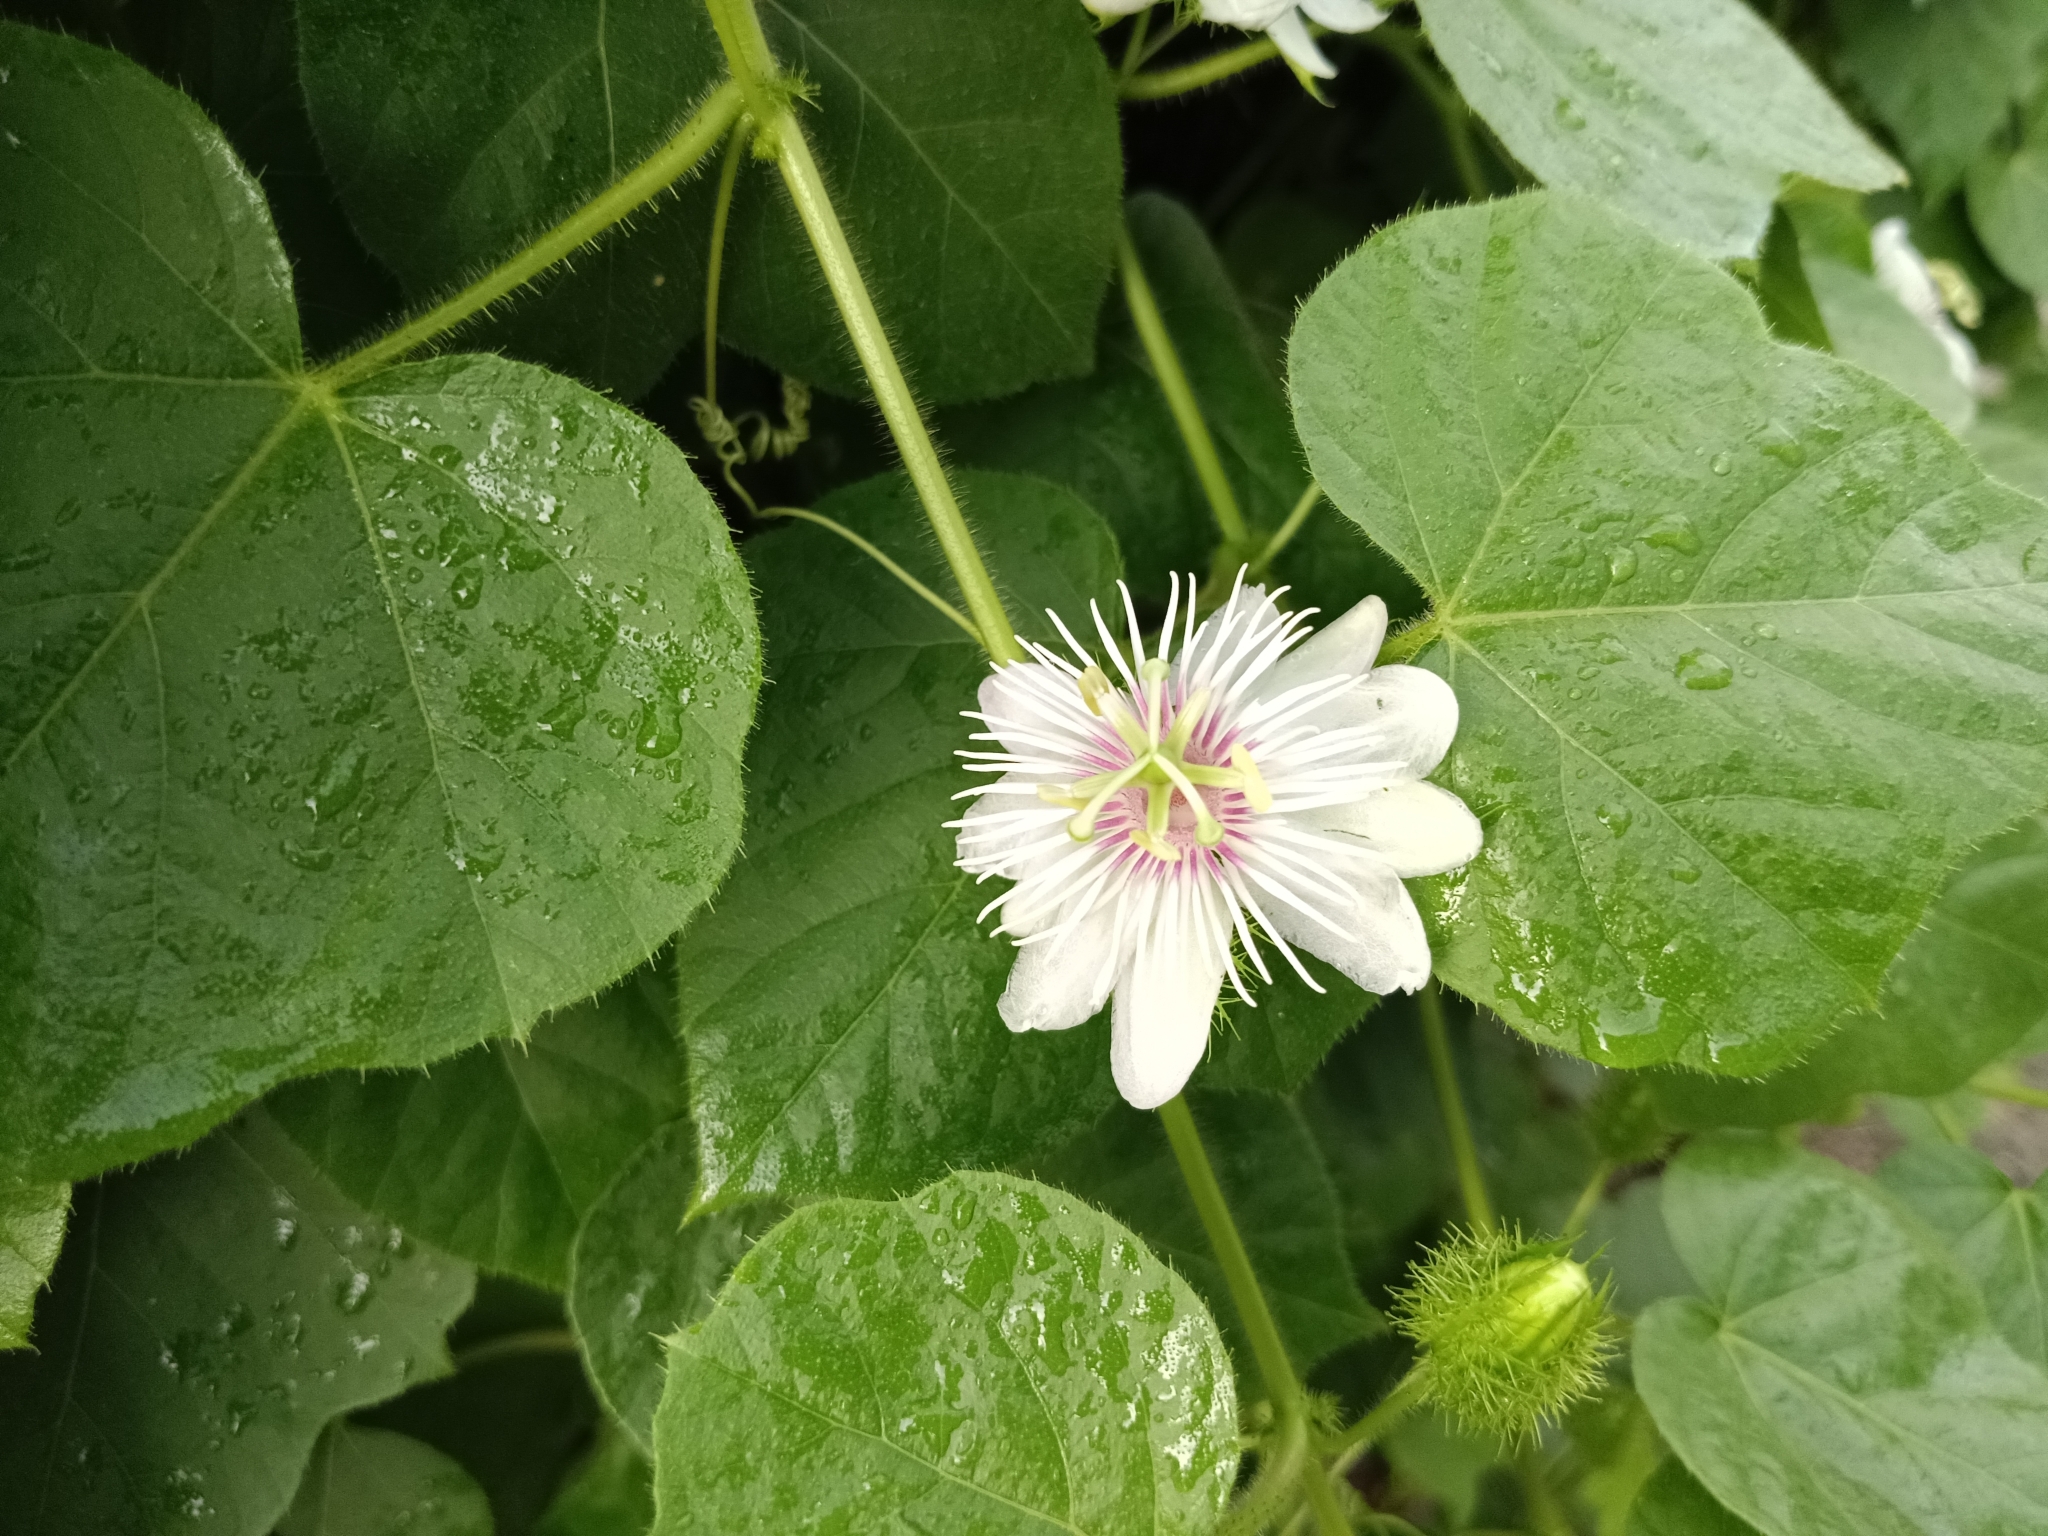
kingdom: Plantae
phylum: Tracheophyta
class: Magnoliopsida
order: Malpighiales
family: Passifloraceae
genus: Passiflora
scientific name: Passiflora vesicaria
